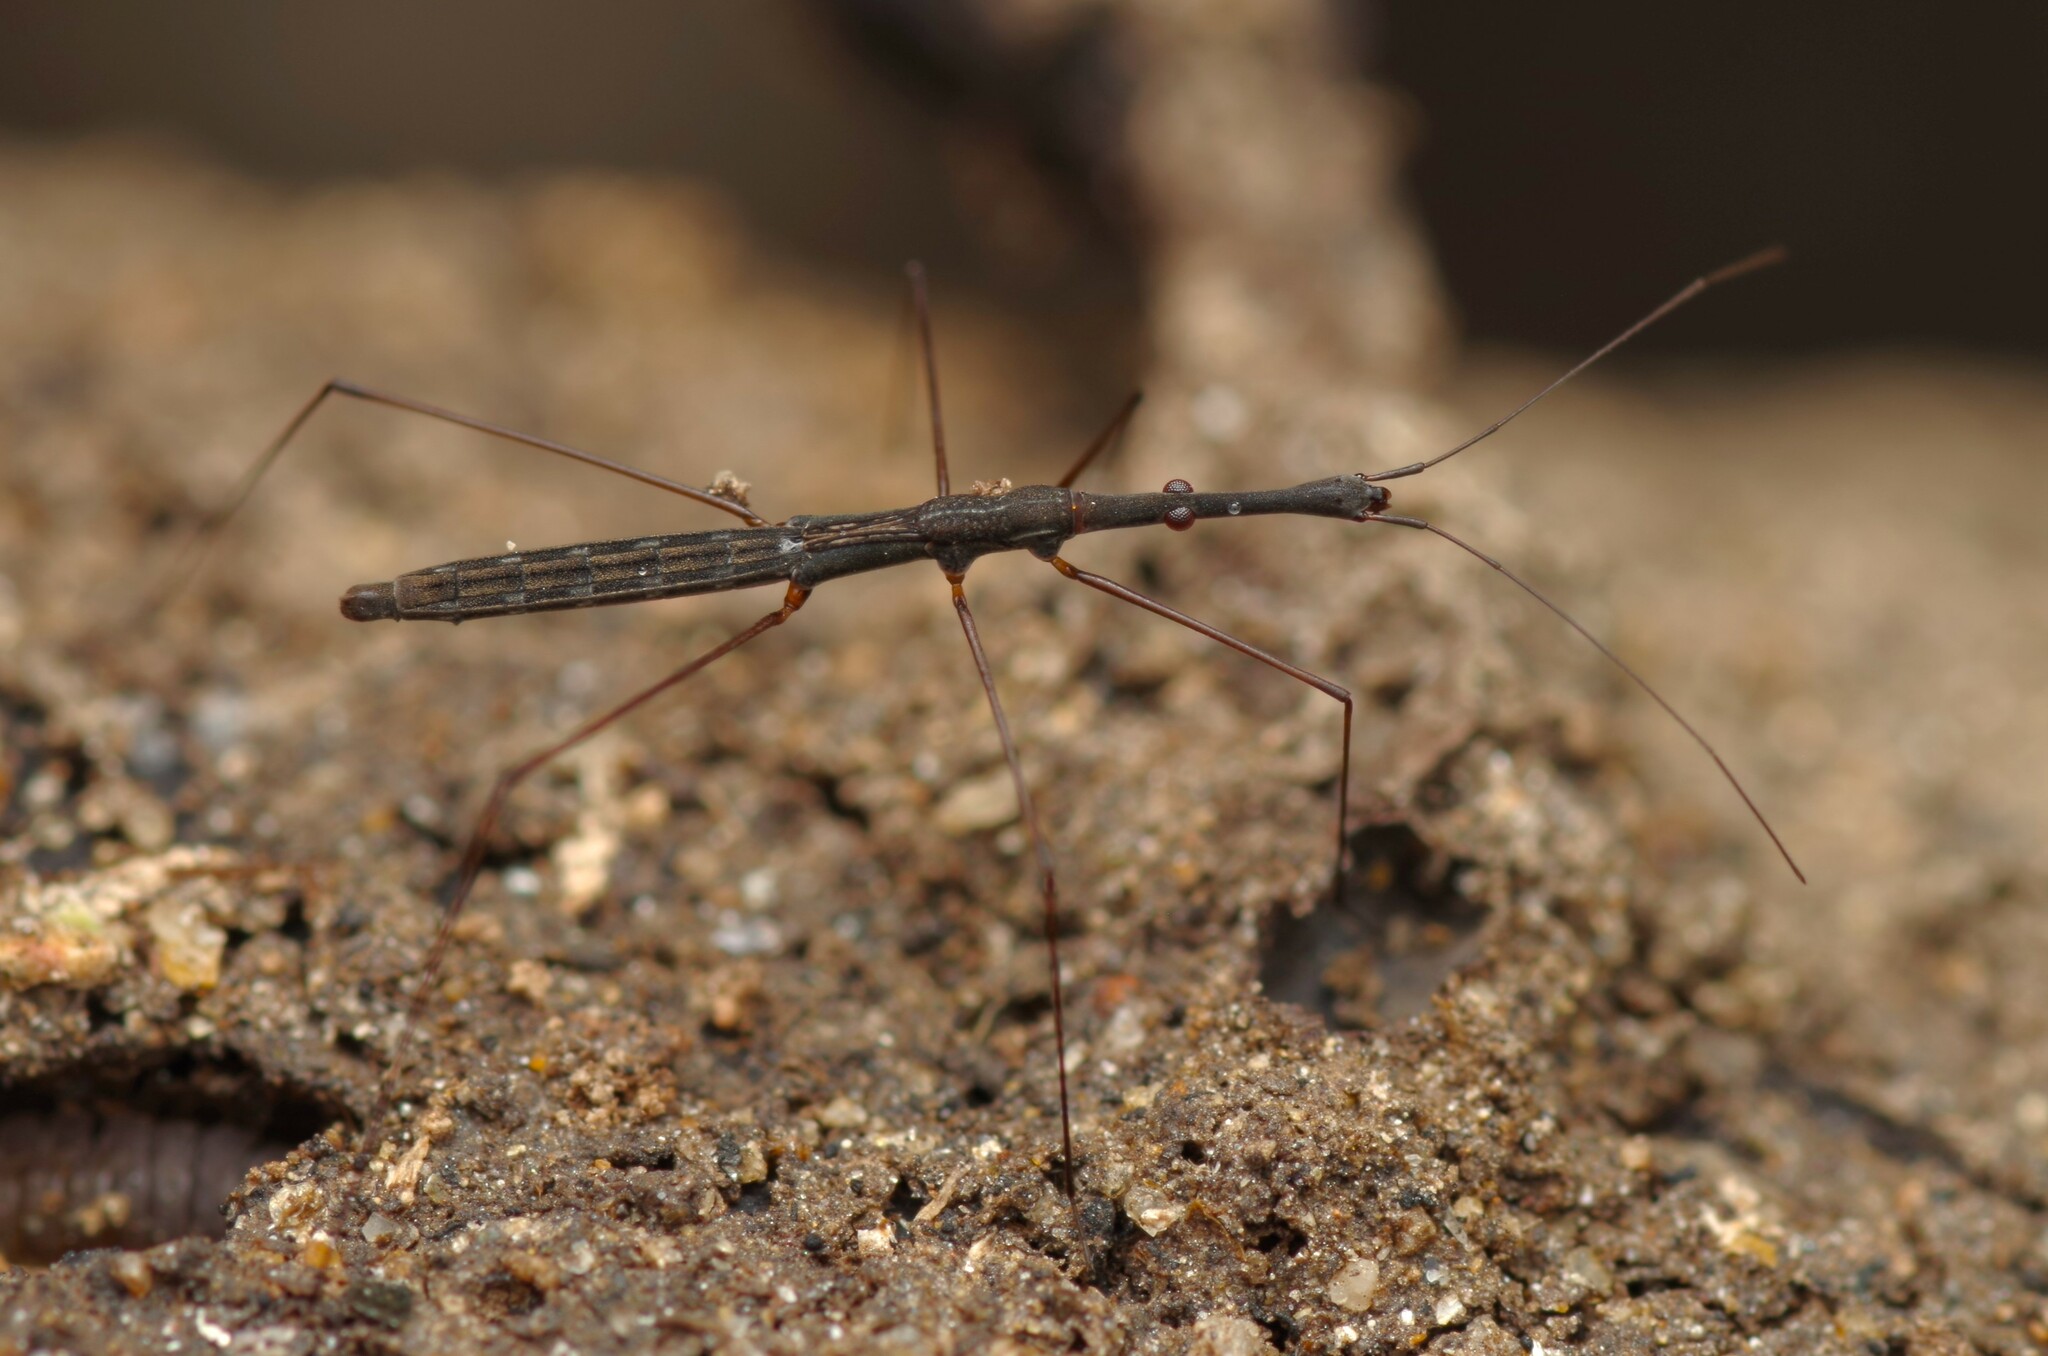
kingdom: Animalia
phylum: Arthropoda
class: Insecta
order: Hemiptera
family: Hydrometridae
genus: Hydrometra
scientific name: Hydrometra stagnorum
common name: Water measurer
